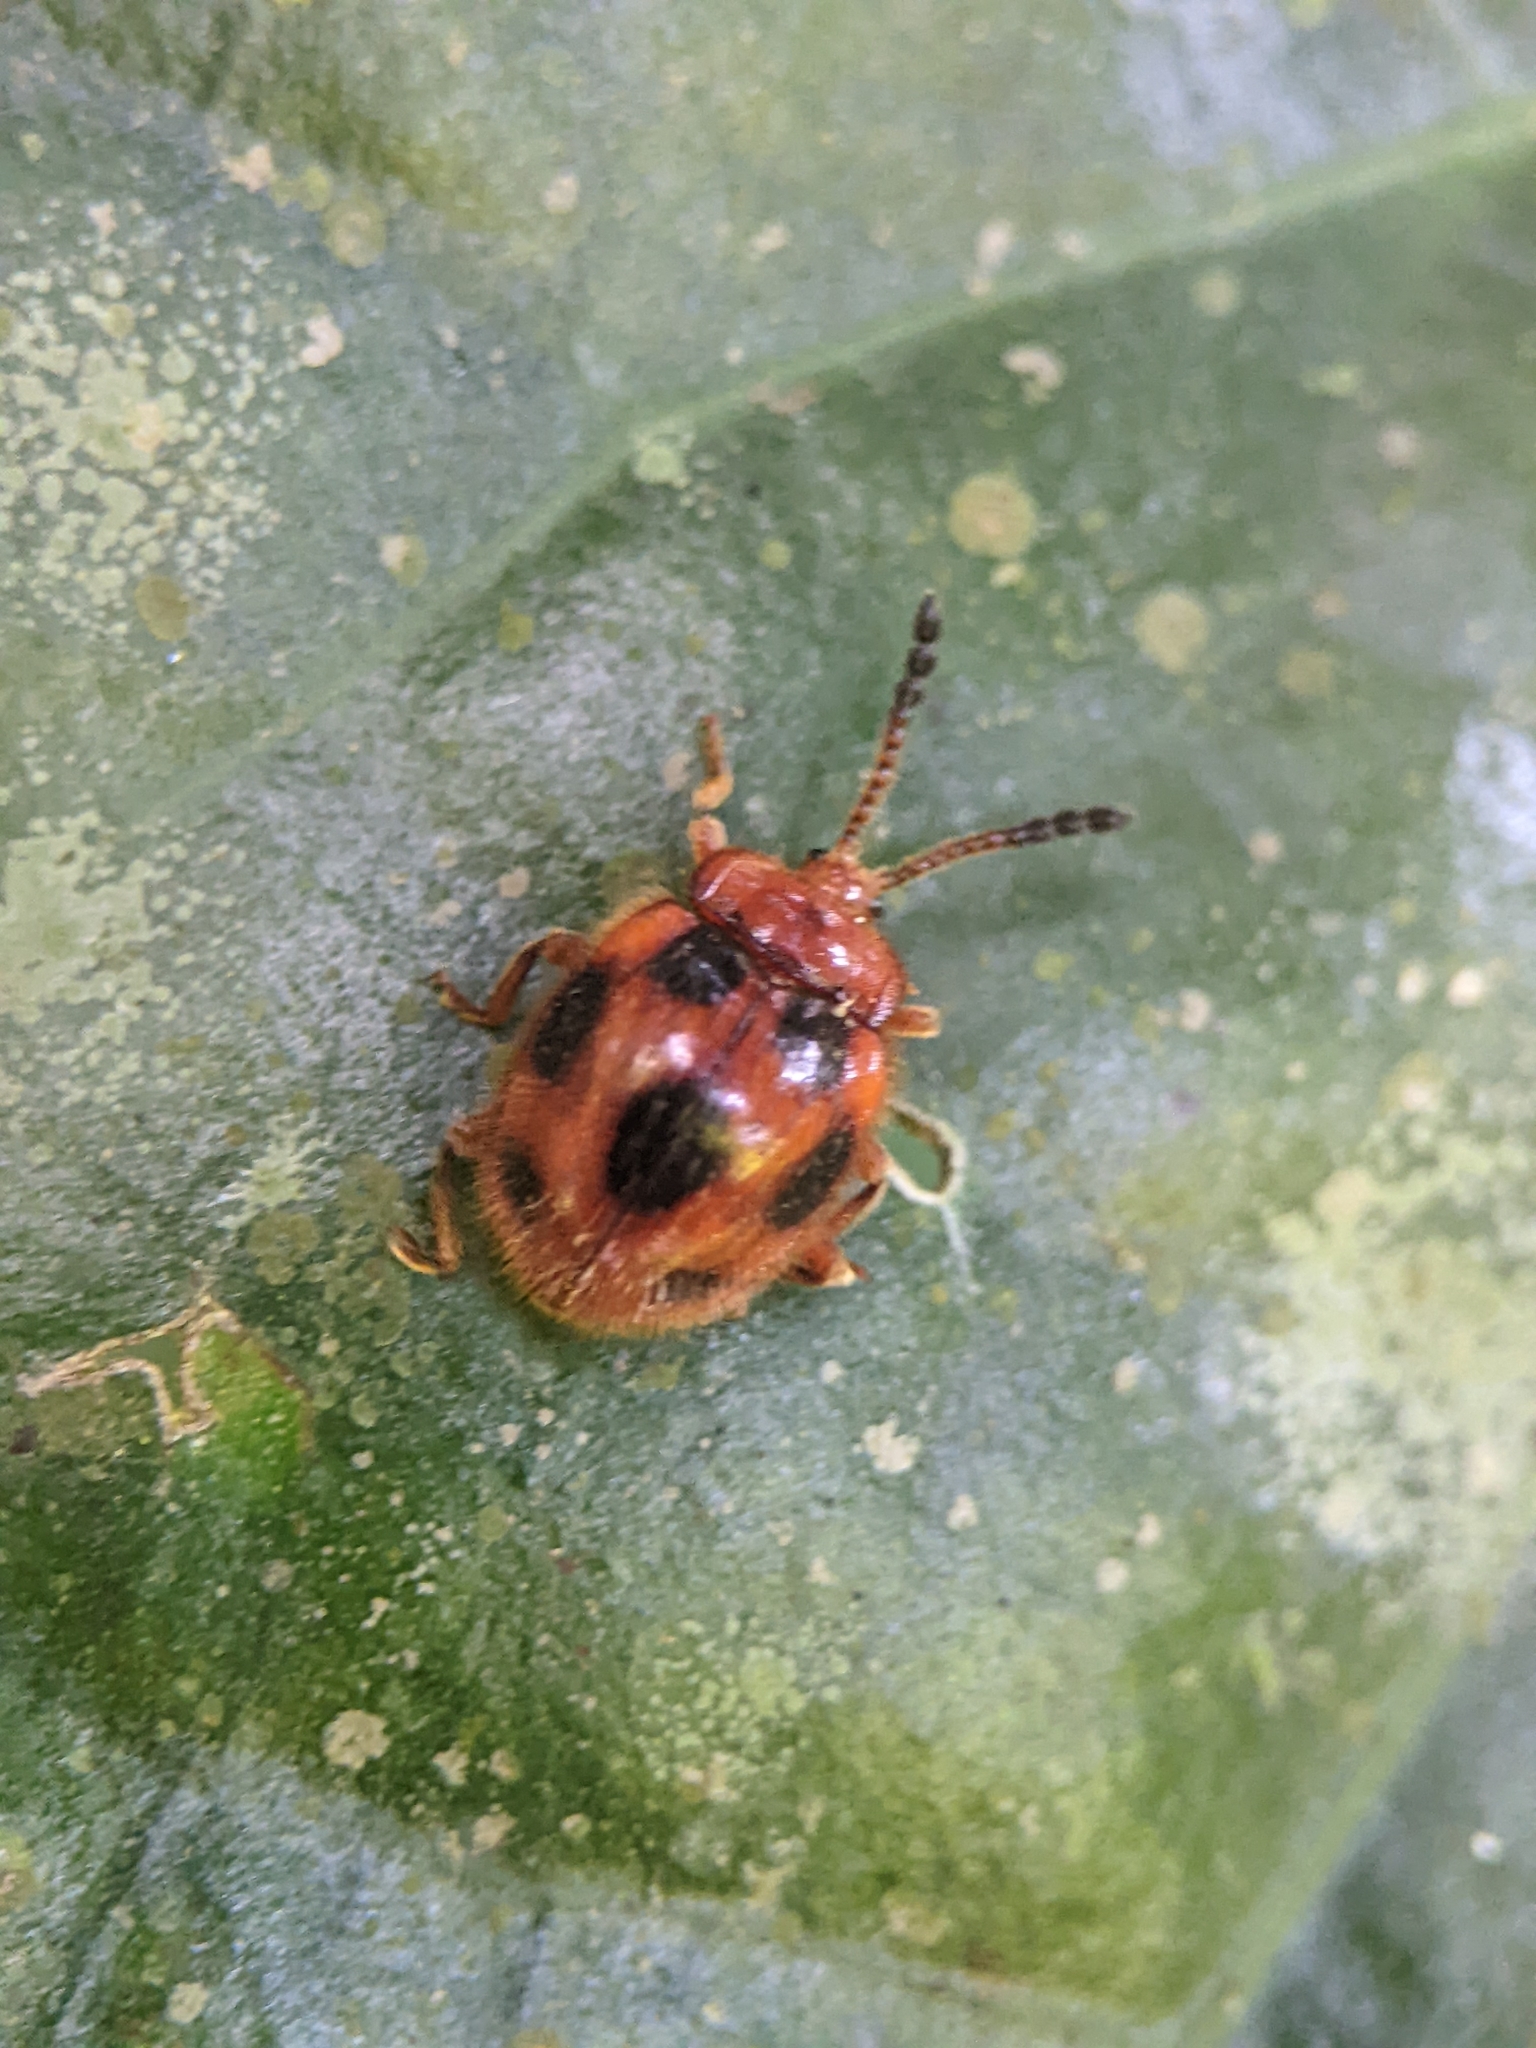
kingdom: Animalia
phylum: Arthropoda
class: Insecta
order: Coleoptera
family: Endomychidae
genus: Stenotarsus
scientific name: Stenotarsus
